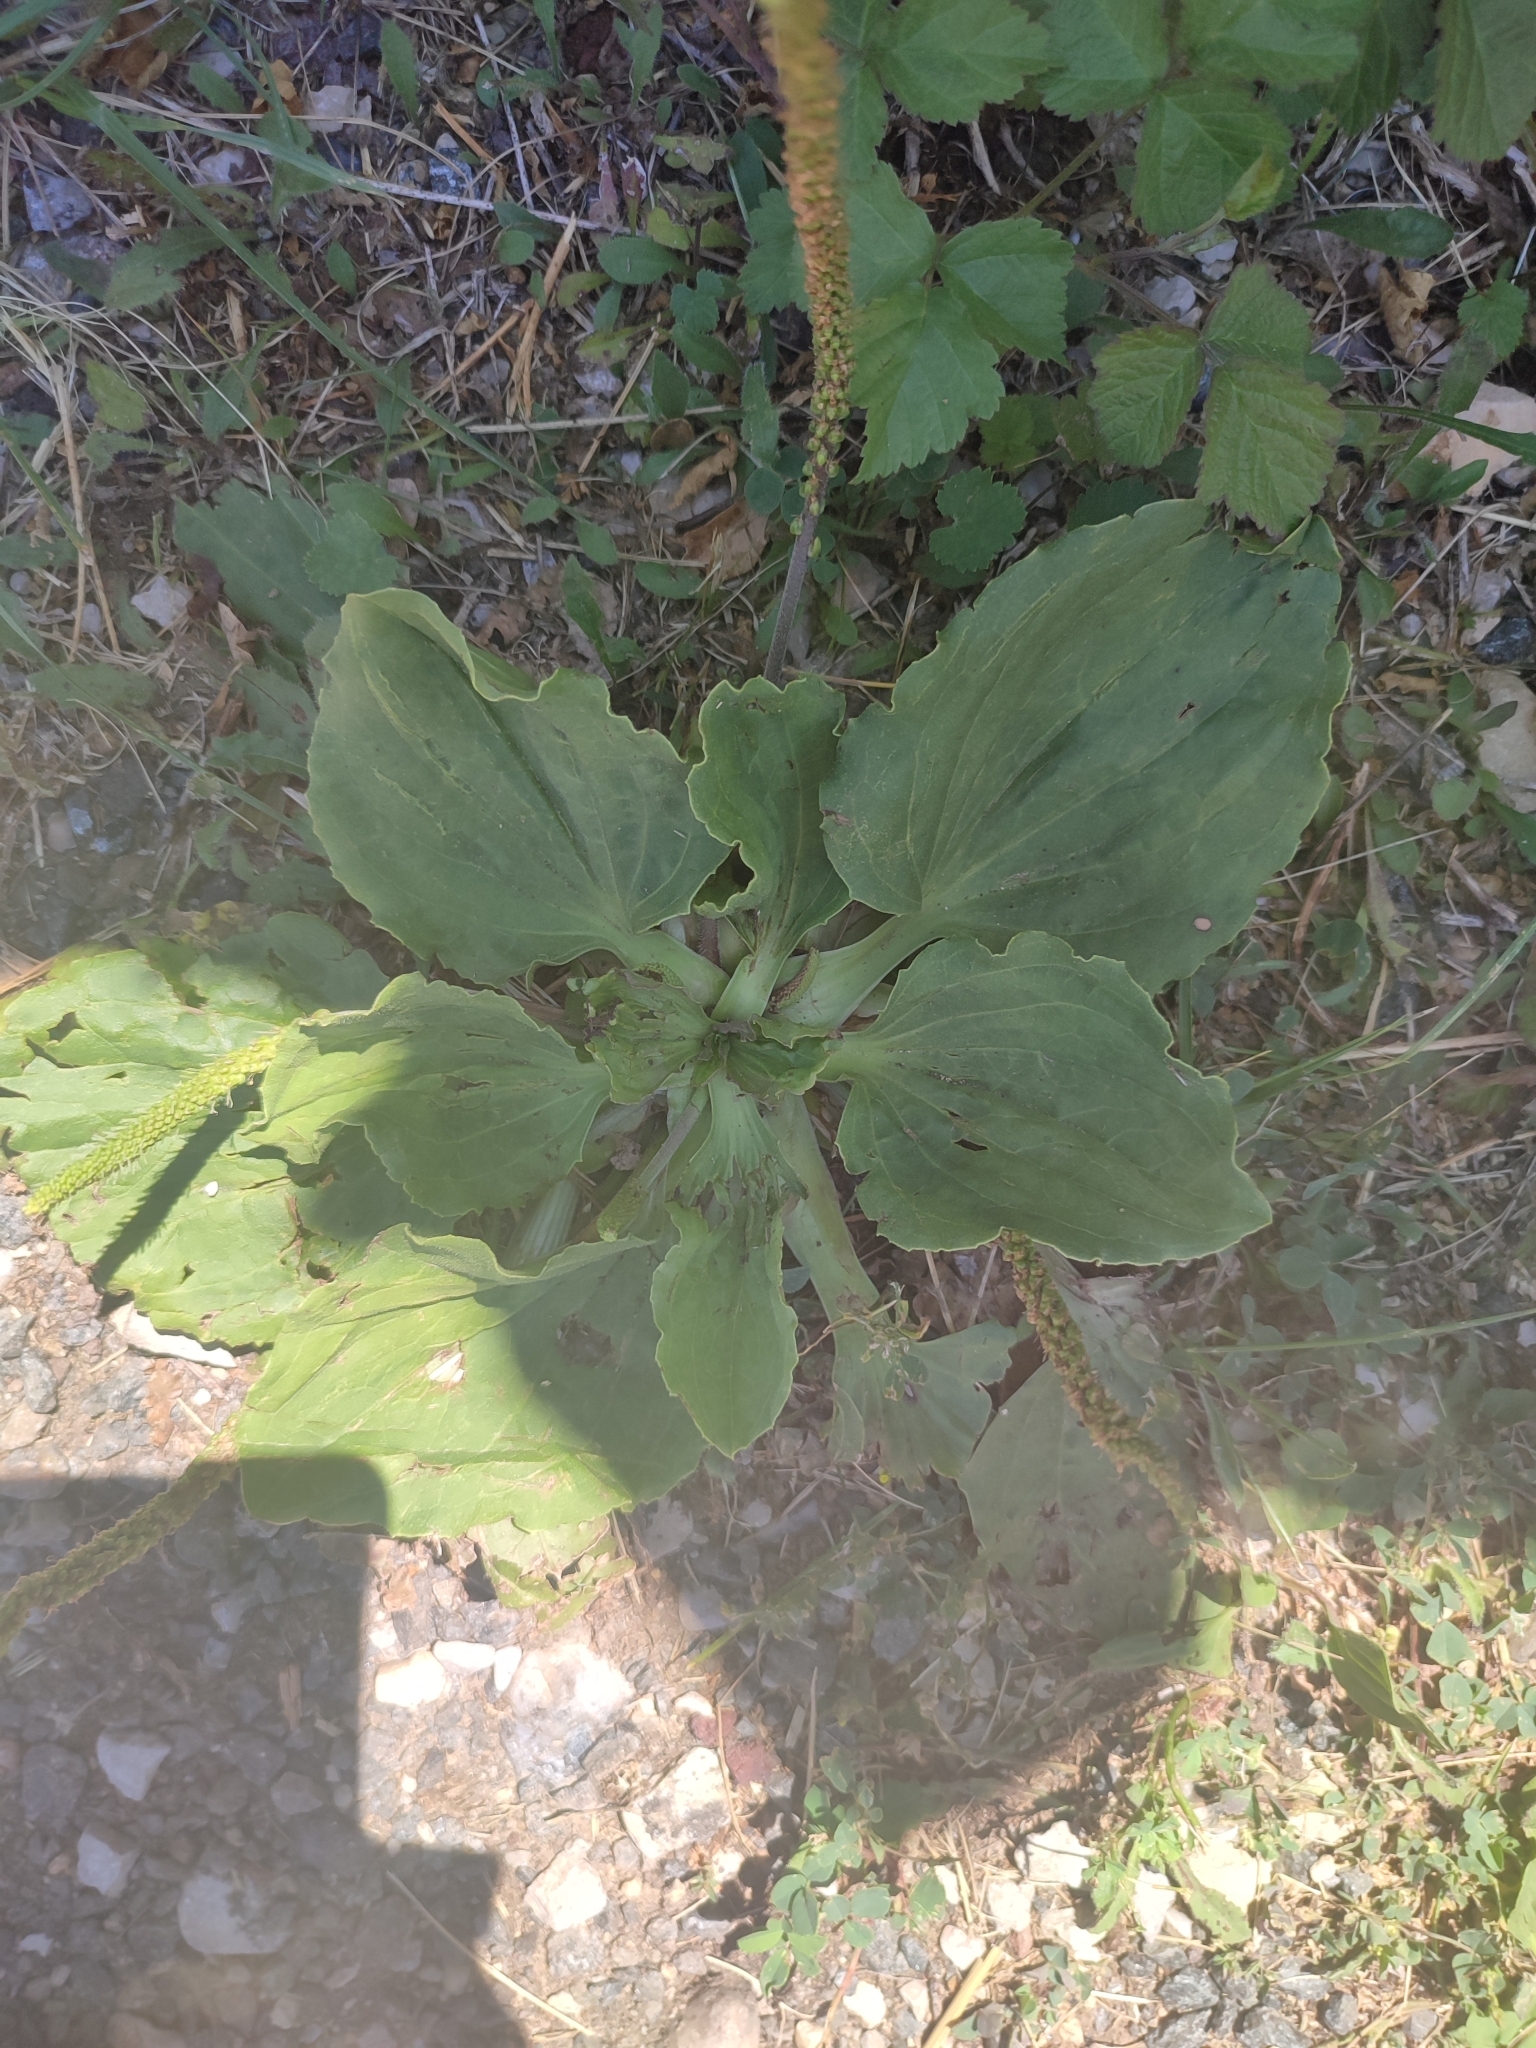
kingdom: Plantae
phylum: Tracheophyta
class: Magnoliopsida
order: Lamiales
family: Plantaginaceae
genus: Plantago
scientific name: Plantago major
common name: Common plantain
